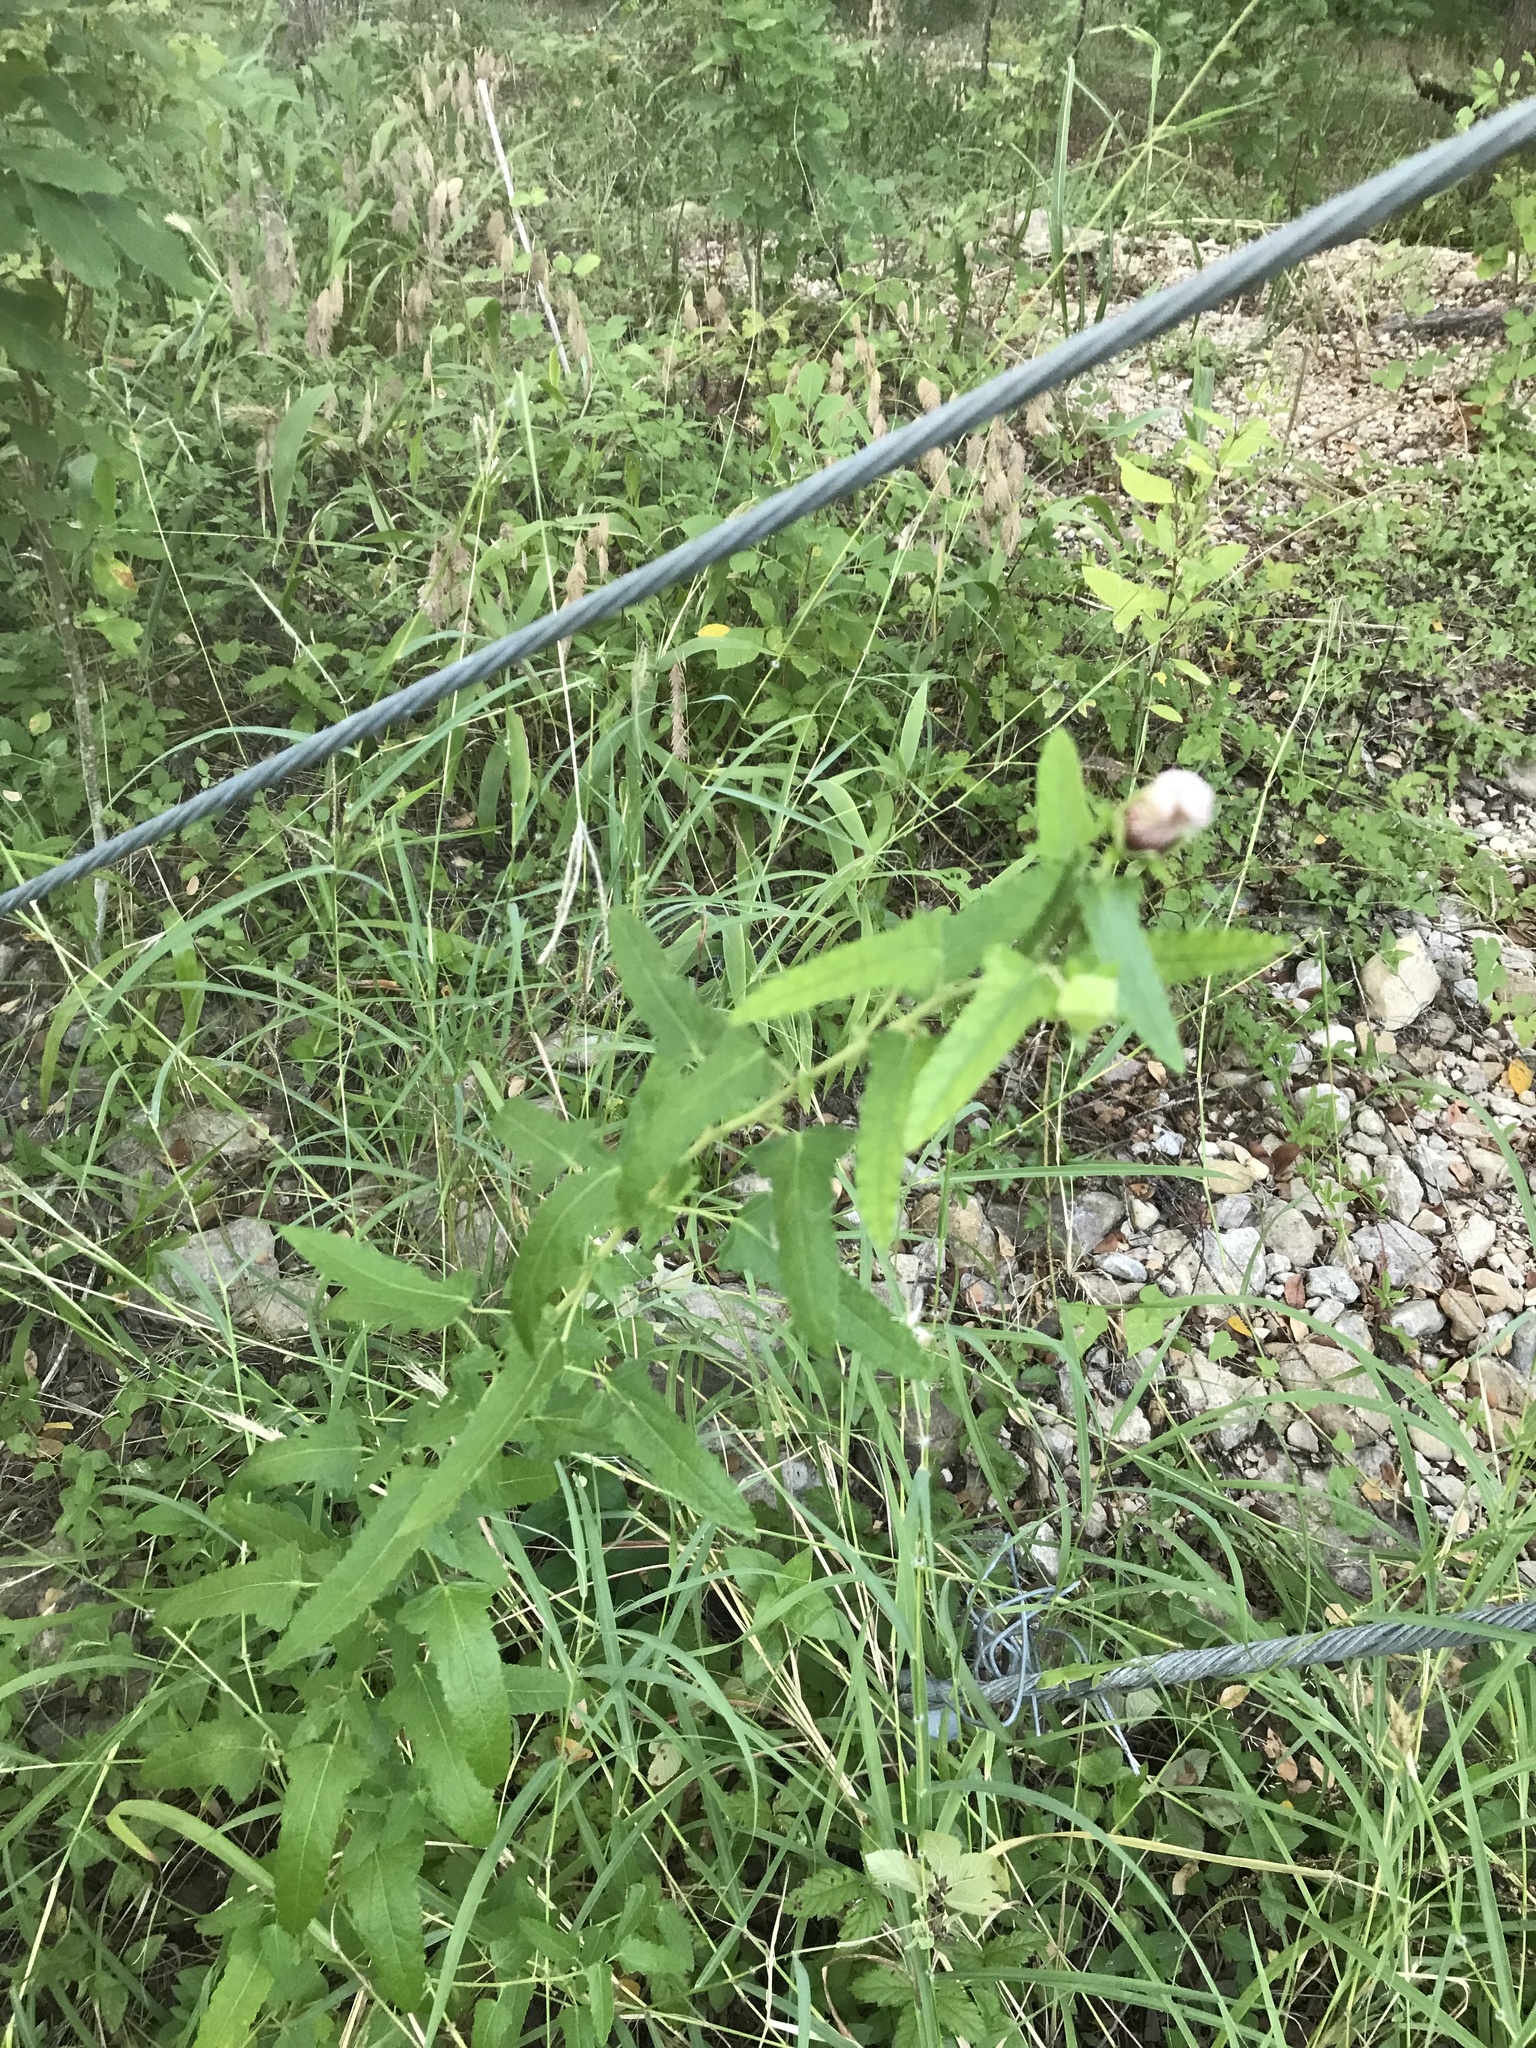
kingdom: Plantae
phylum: Tracheophyta
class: Magnoliopsida
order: Malvales
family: Malvaceae
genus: Pavonia
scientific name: Pavonia hastata
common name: Spearleaf swampmallow
